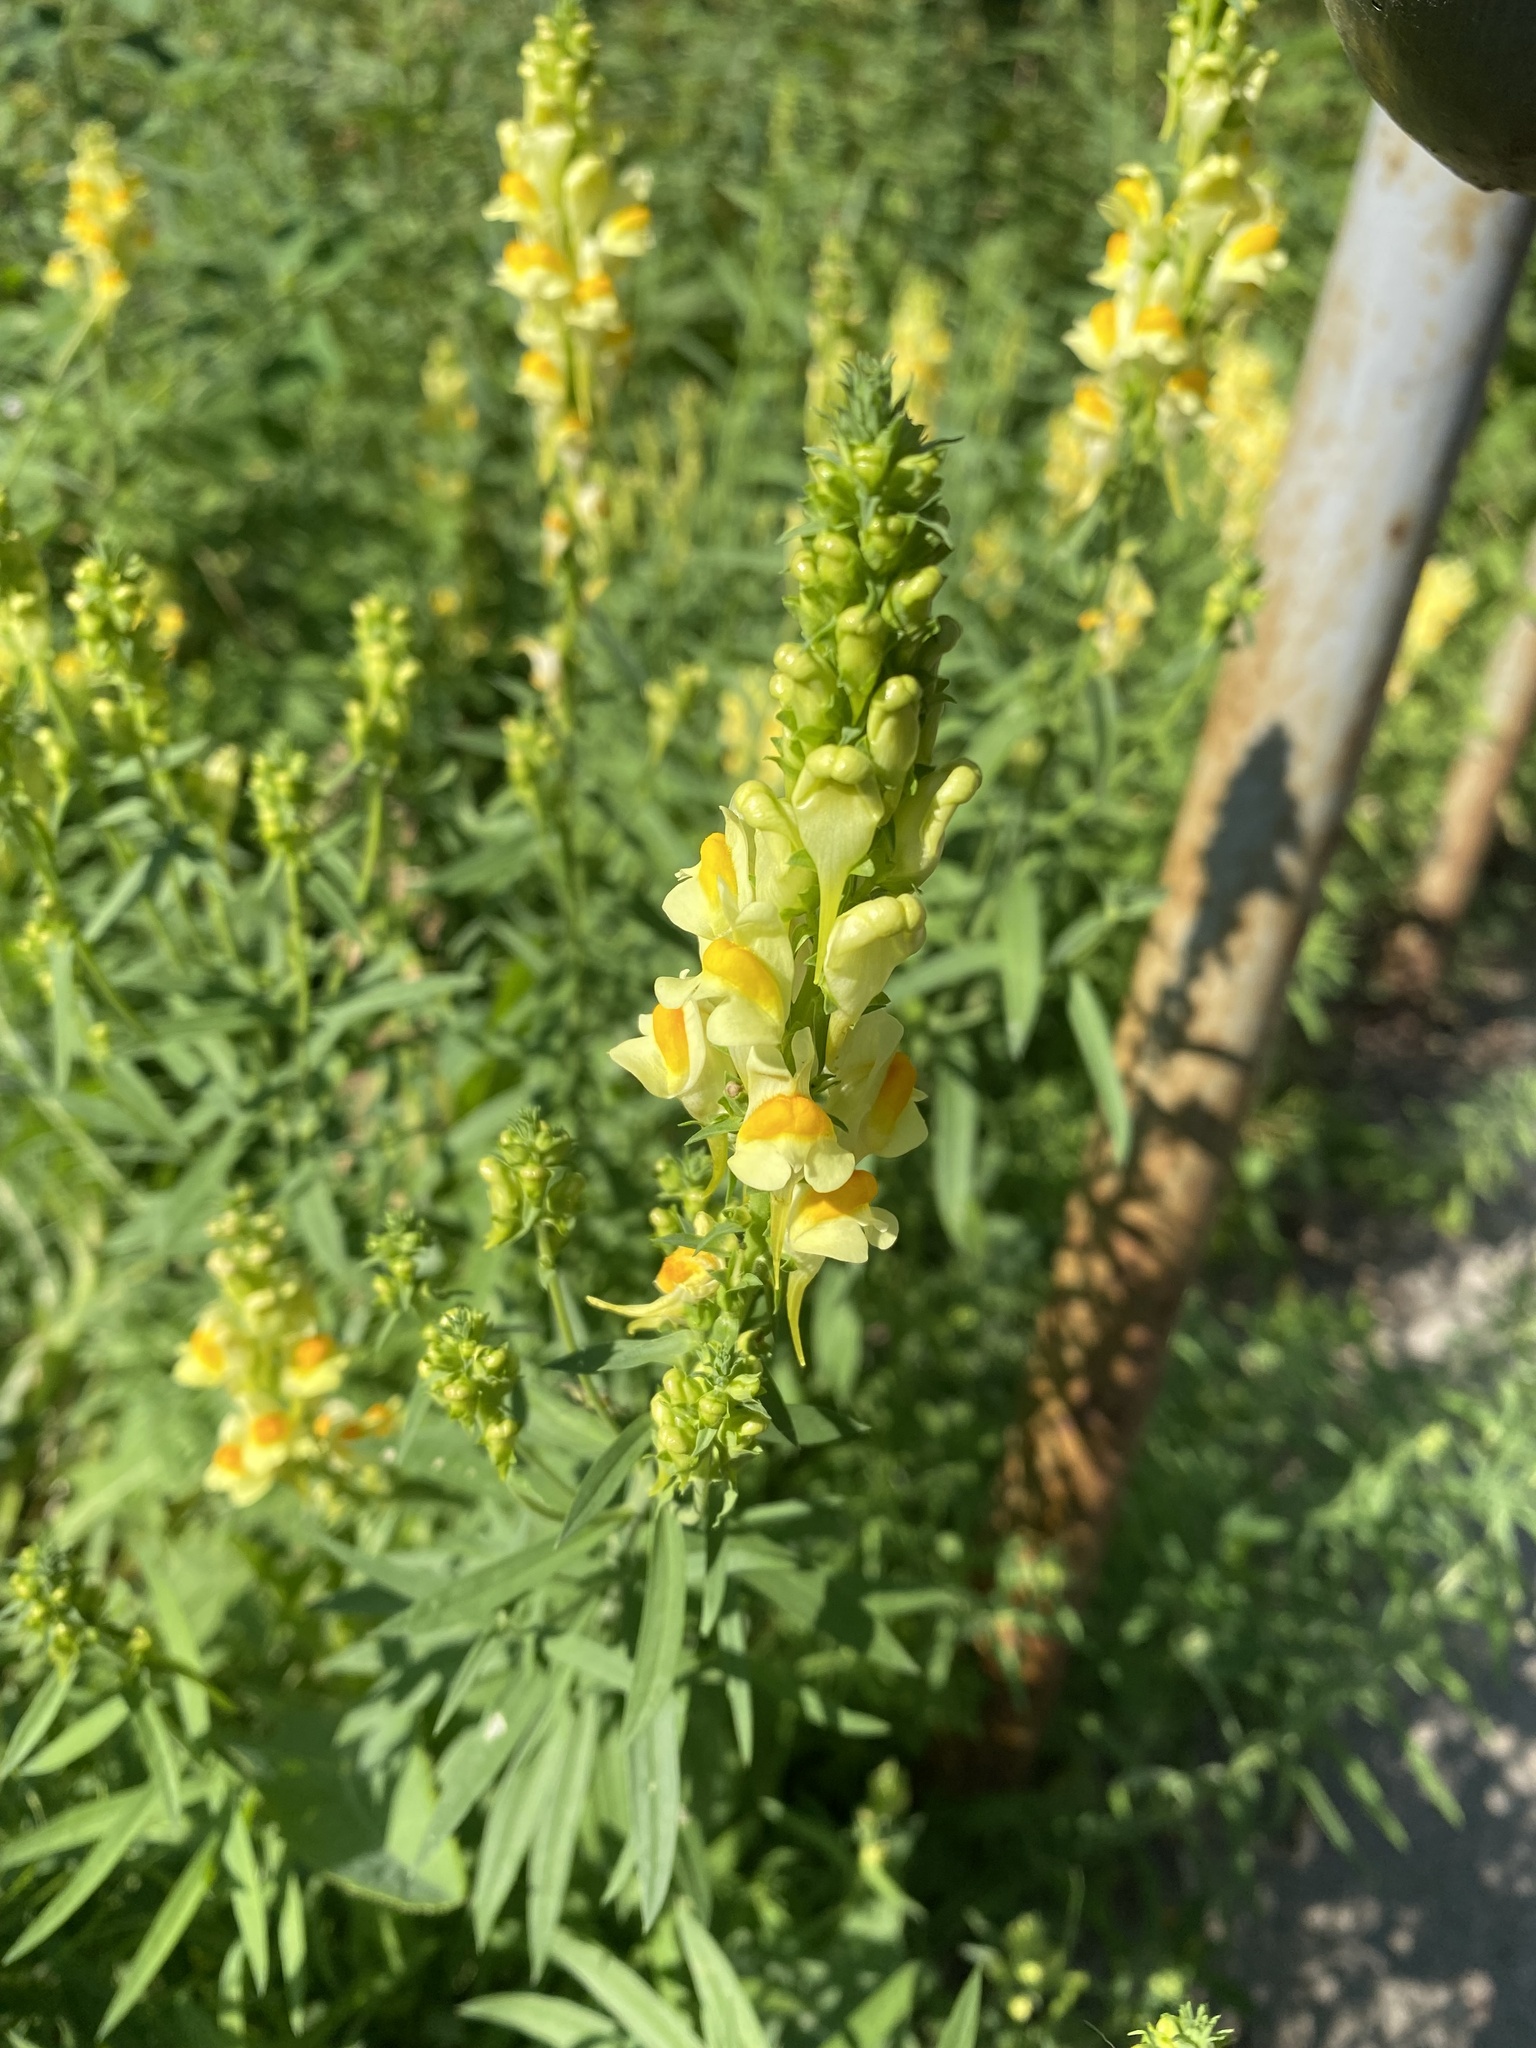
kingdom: Plantae
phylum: Tracheophyta
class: Magnoliopsida
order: Lamiales
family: Plantaginaceae
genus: Linaria
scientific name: Linaria vulgaris
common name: Butter and eggs
